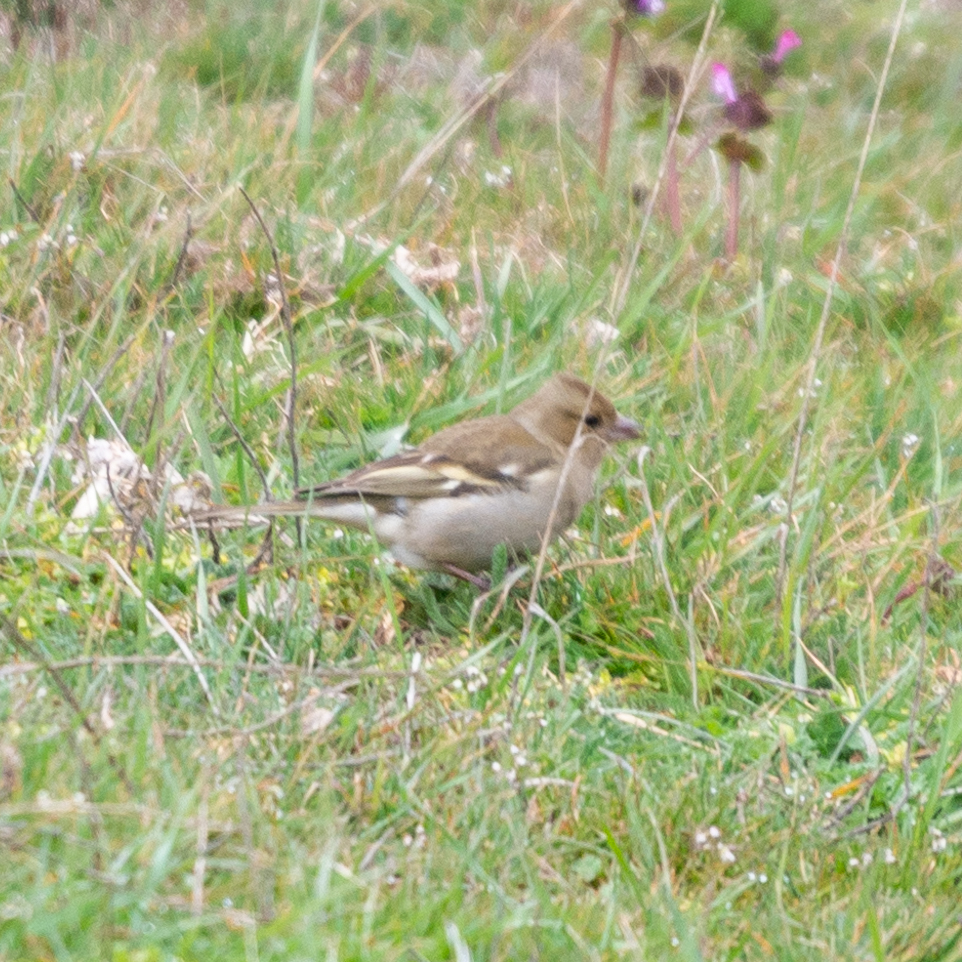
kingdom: Animalia
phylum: Chordata
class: Aves
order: Passeriformes
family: Fringillidae
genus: Fringilla
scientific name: Fringilla coelebs
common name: Common chaffinch
